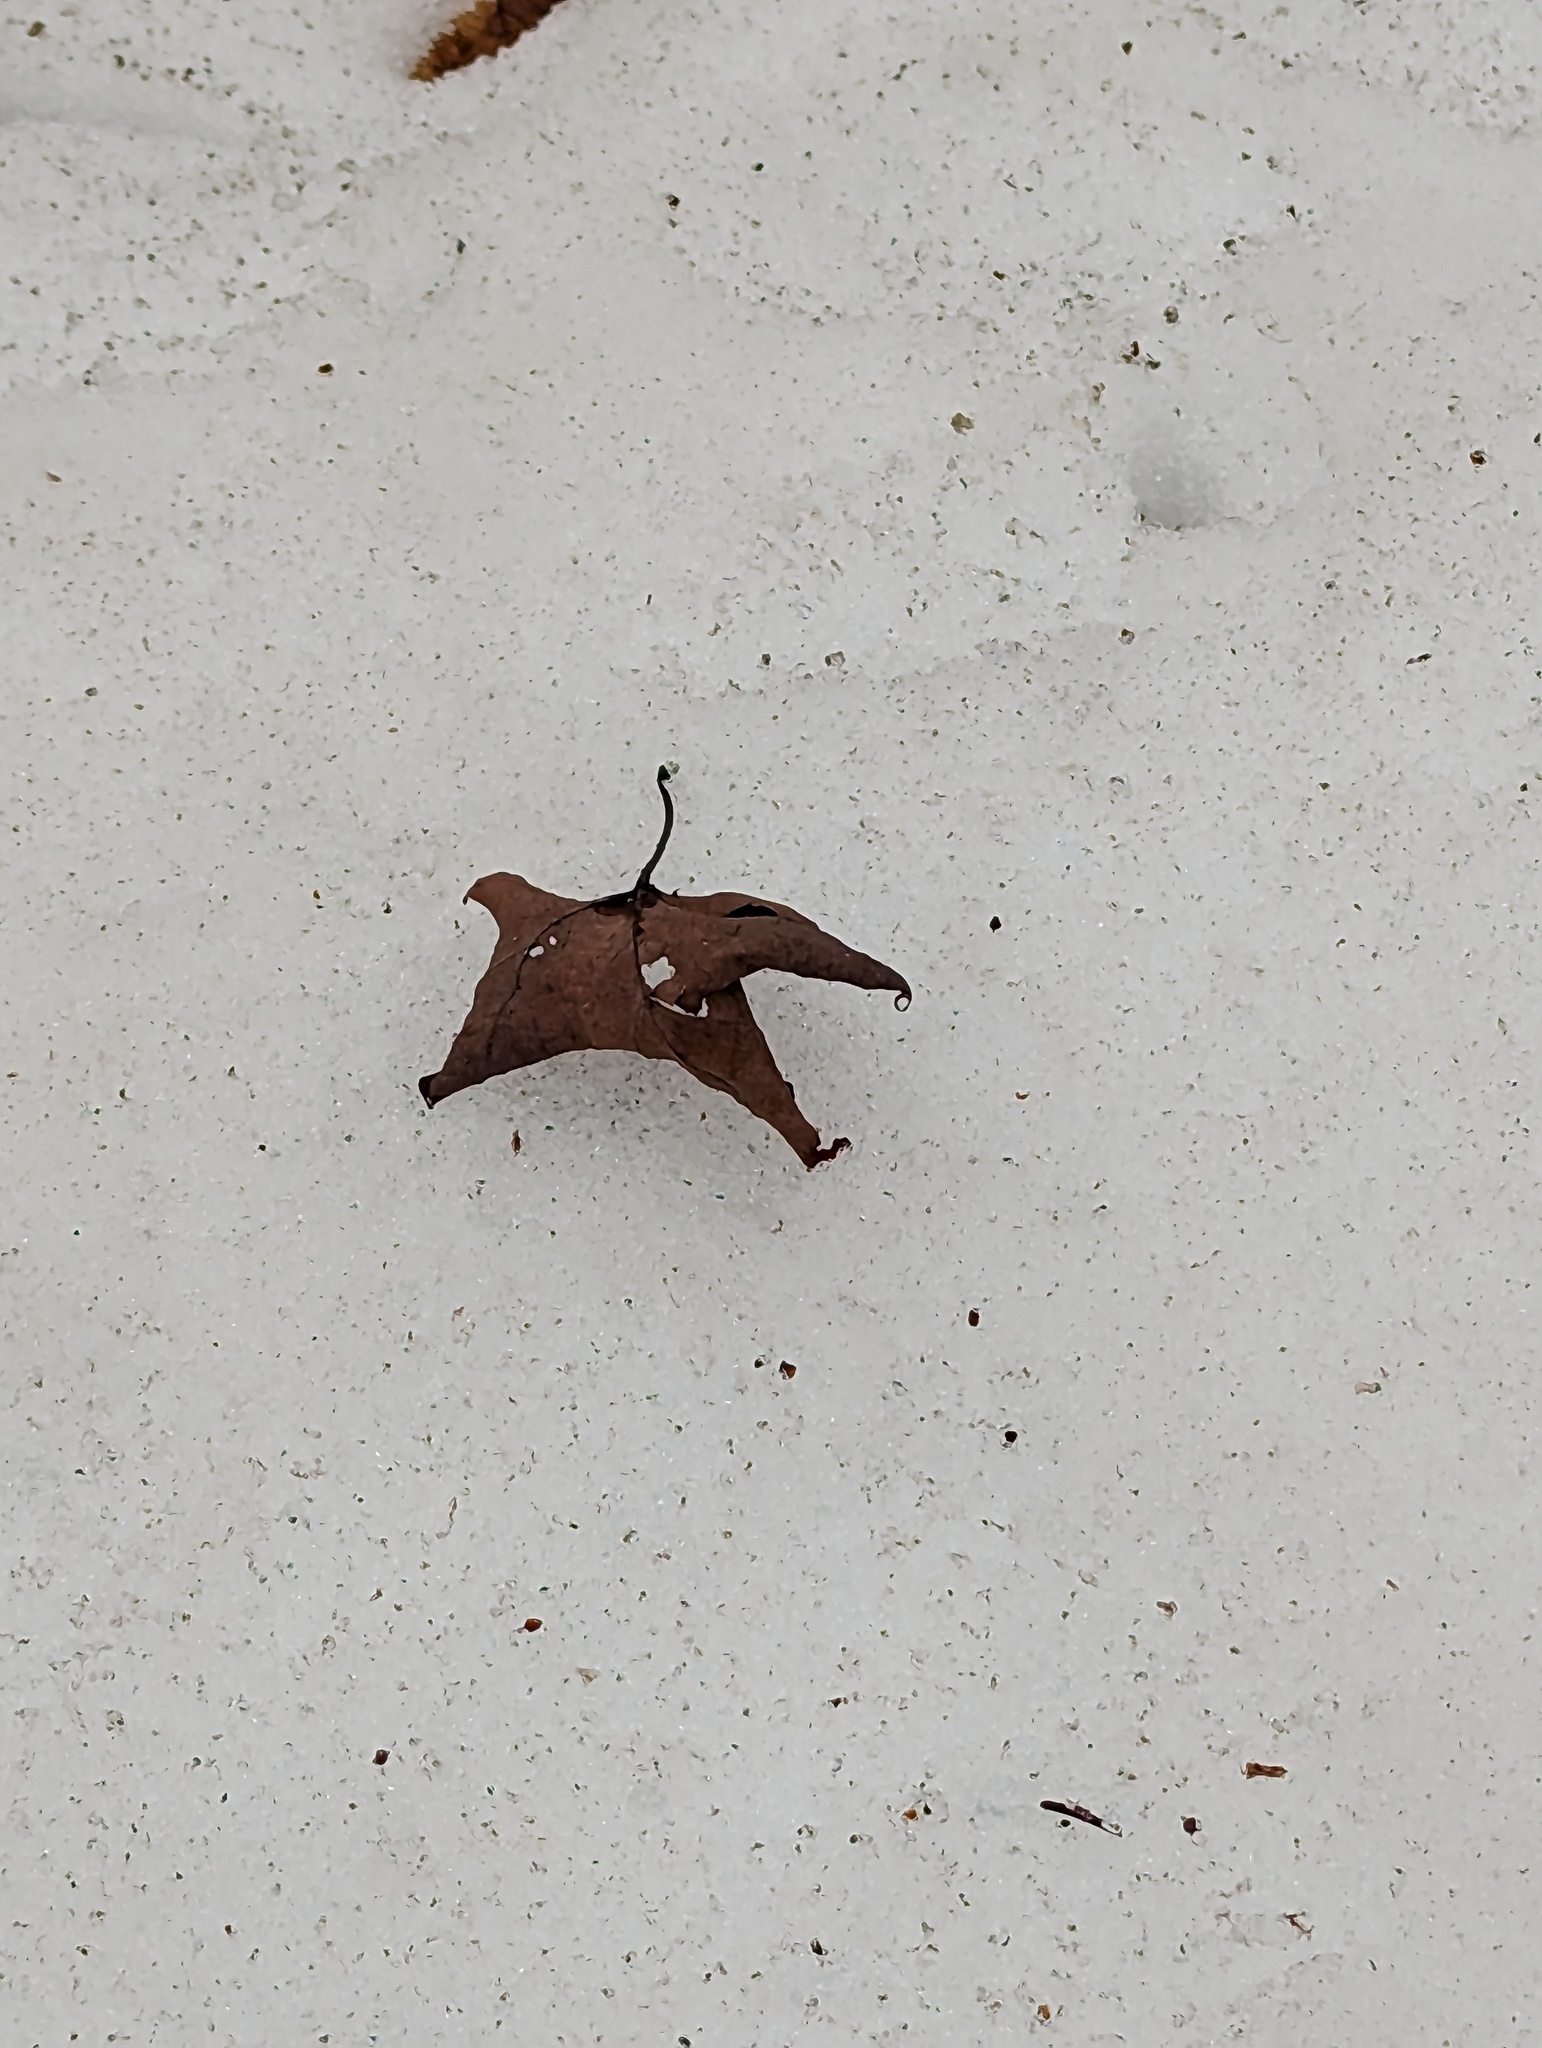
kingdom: Plantae
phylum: Tracheophyta
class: Magnoliopsida
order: Sapindales
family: Sapindaceae
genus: Acer
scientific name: Acer saccharum
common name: Sugar maple
